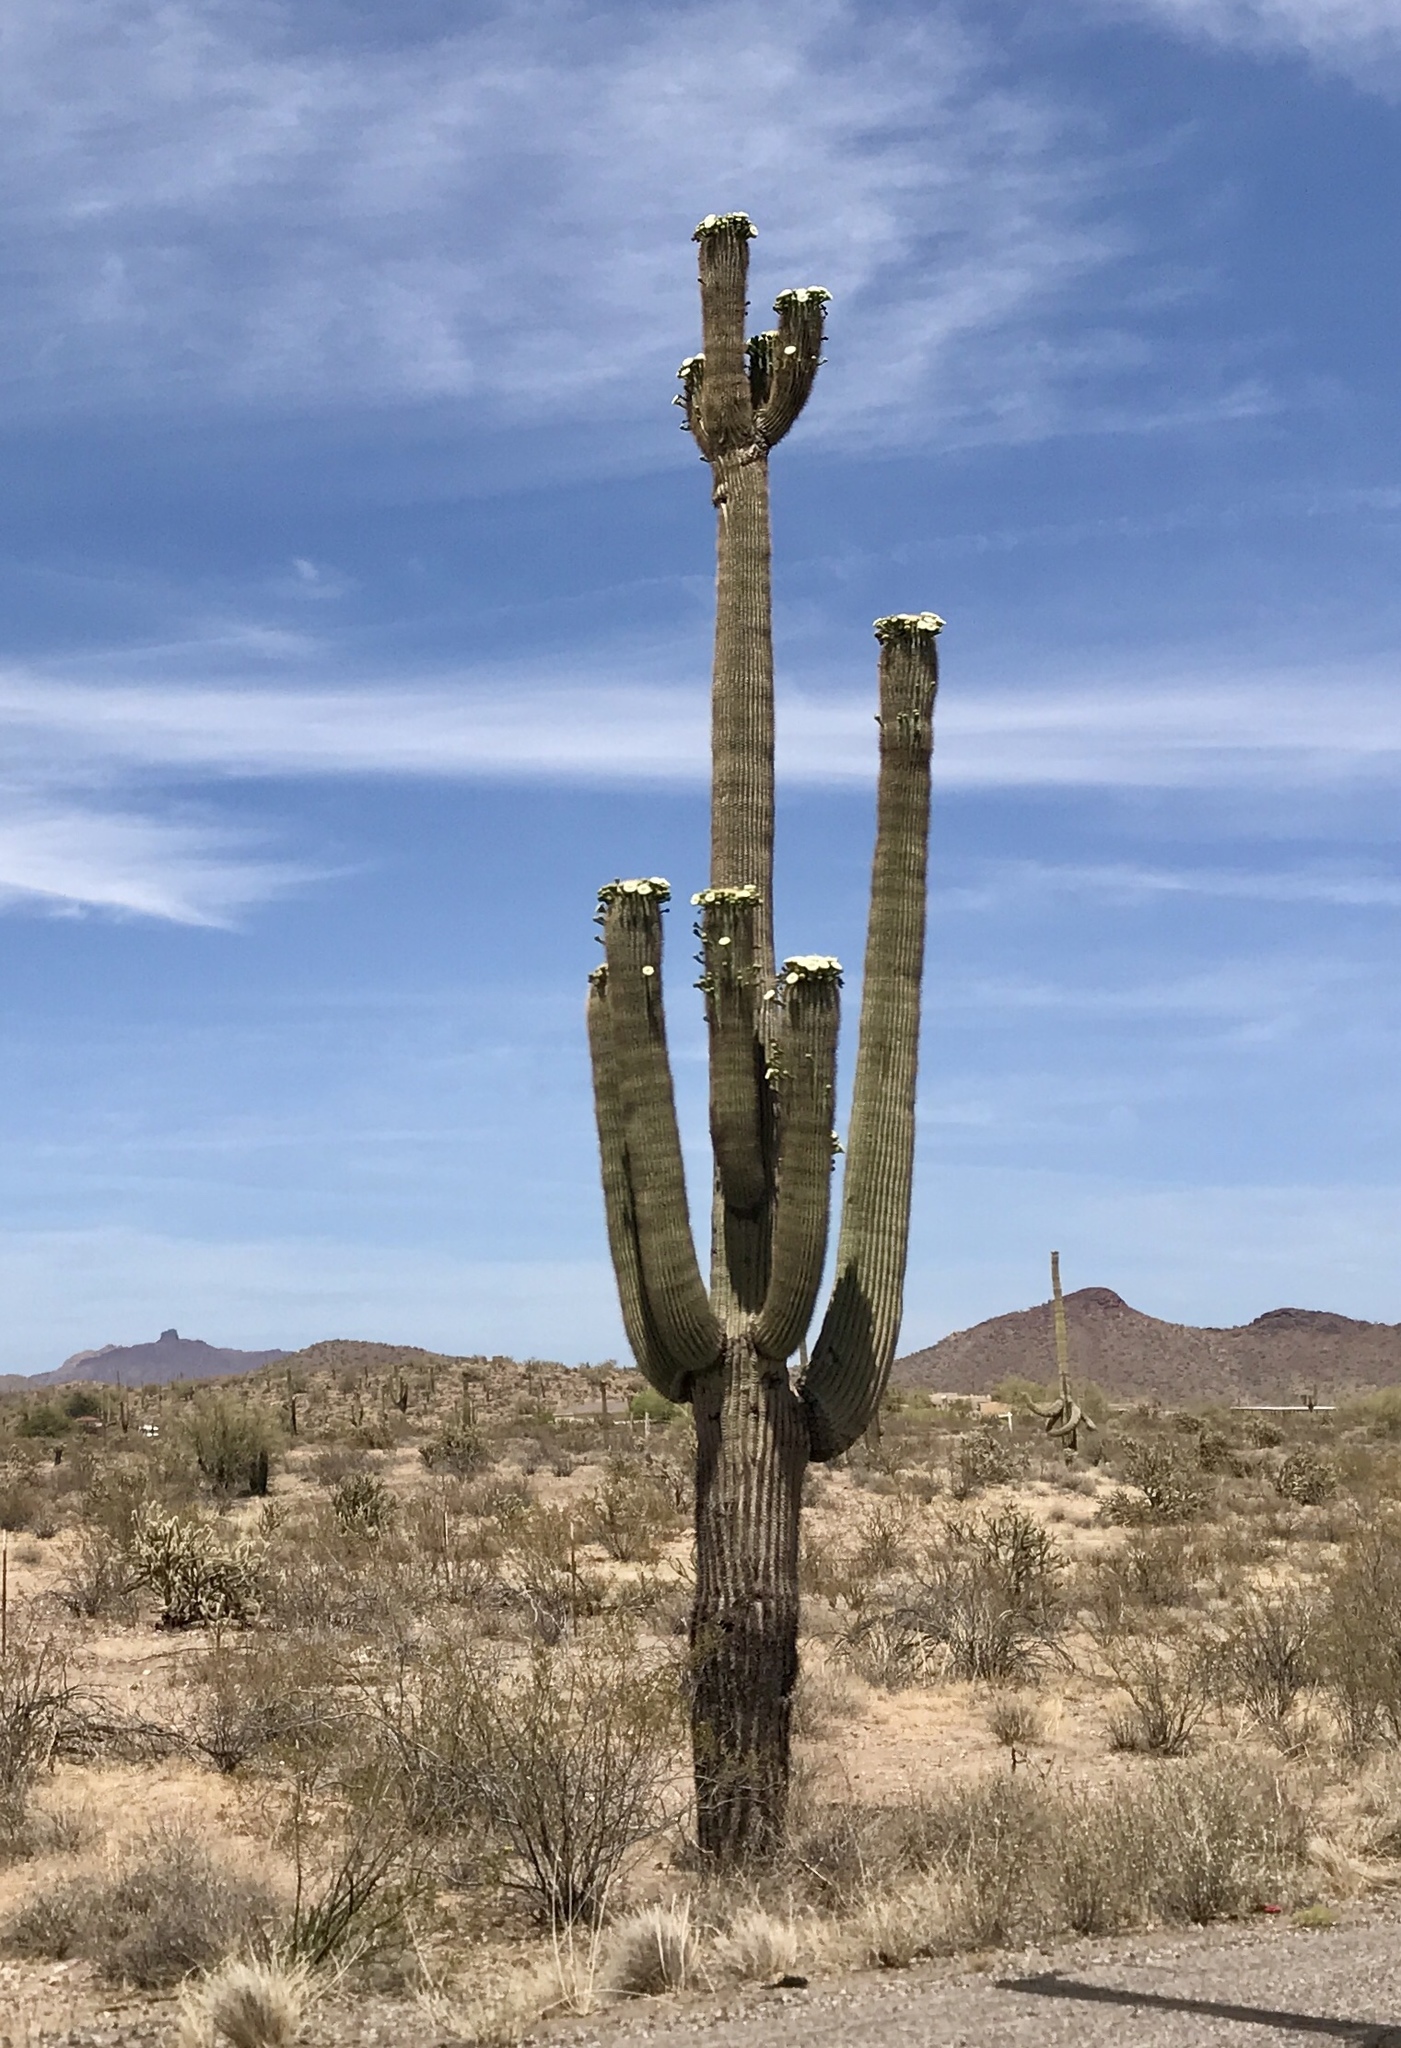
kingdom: Plantae
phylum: Tracheophyta
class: Magnoliopsida
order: Caryophyllales
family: Cactaceae
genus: Carnegiea
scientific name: Carnegiea gigantea
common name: Saguaro
